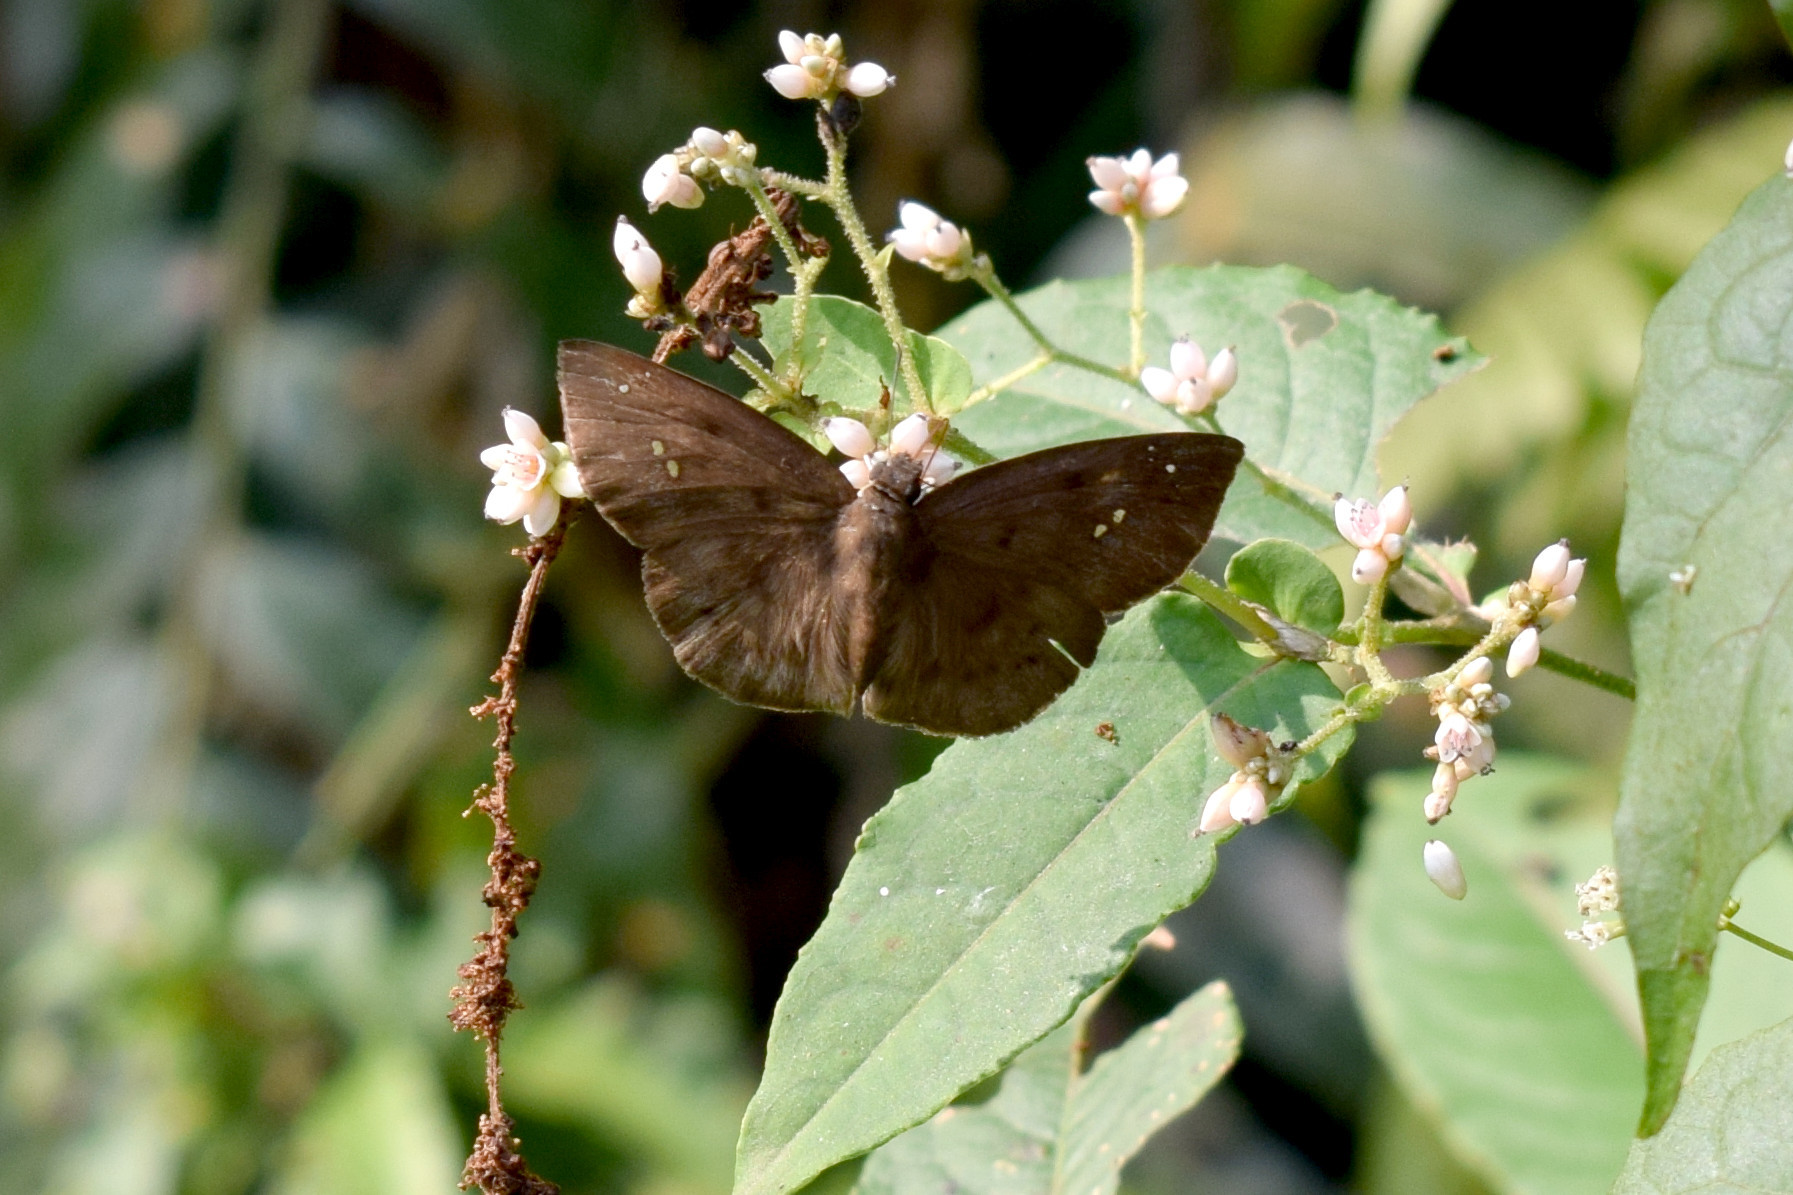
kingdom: Animalia
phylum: Arthropoda
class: Insecta
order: Lepidoptera
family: Hesperiidae
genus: Tagiades
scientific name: Tagiades japetus
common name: Pied flat
